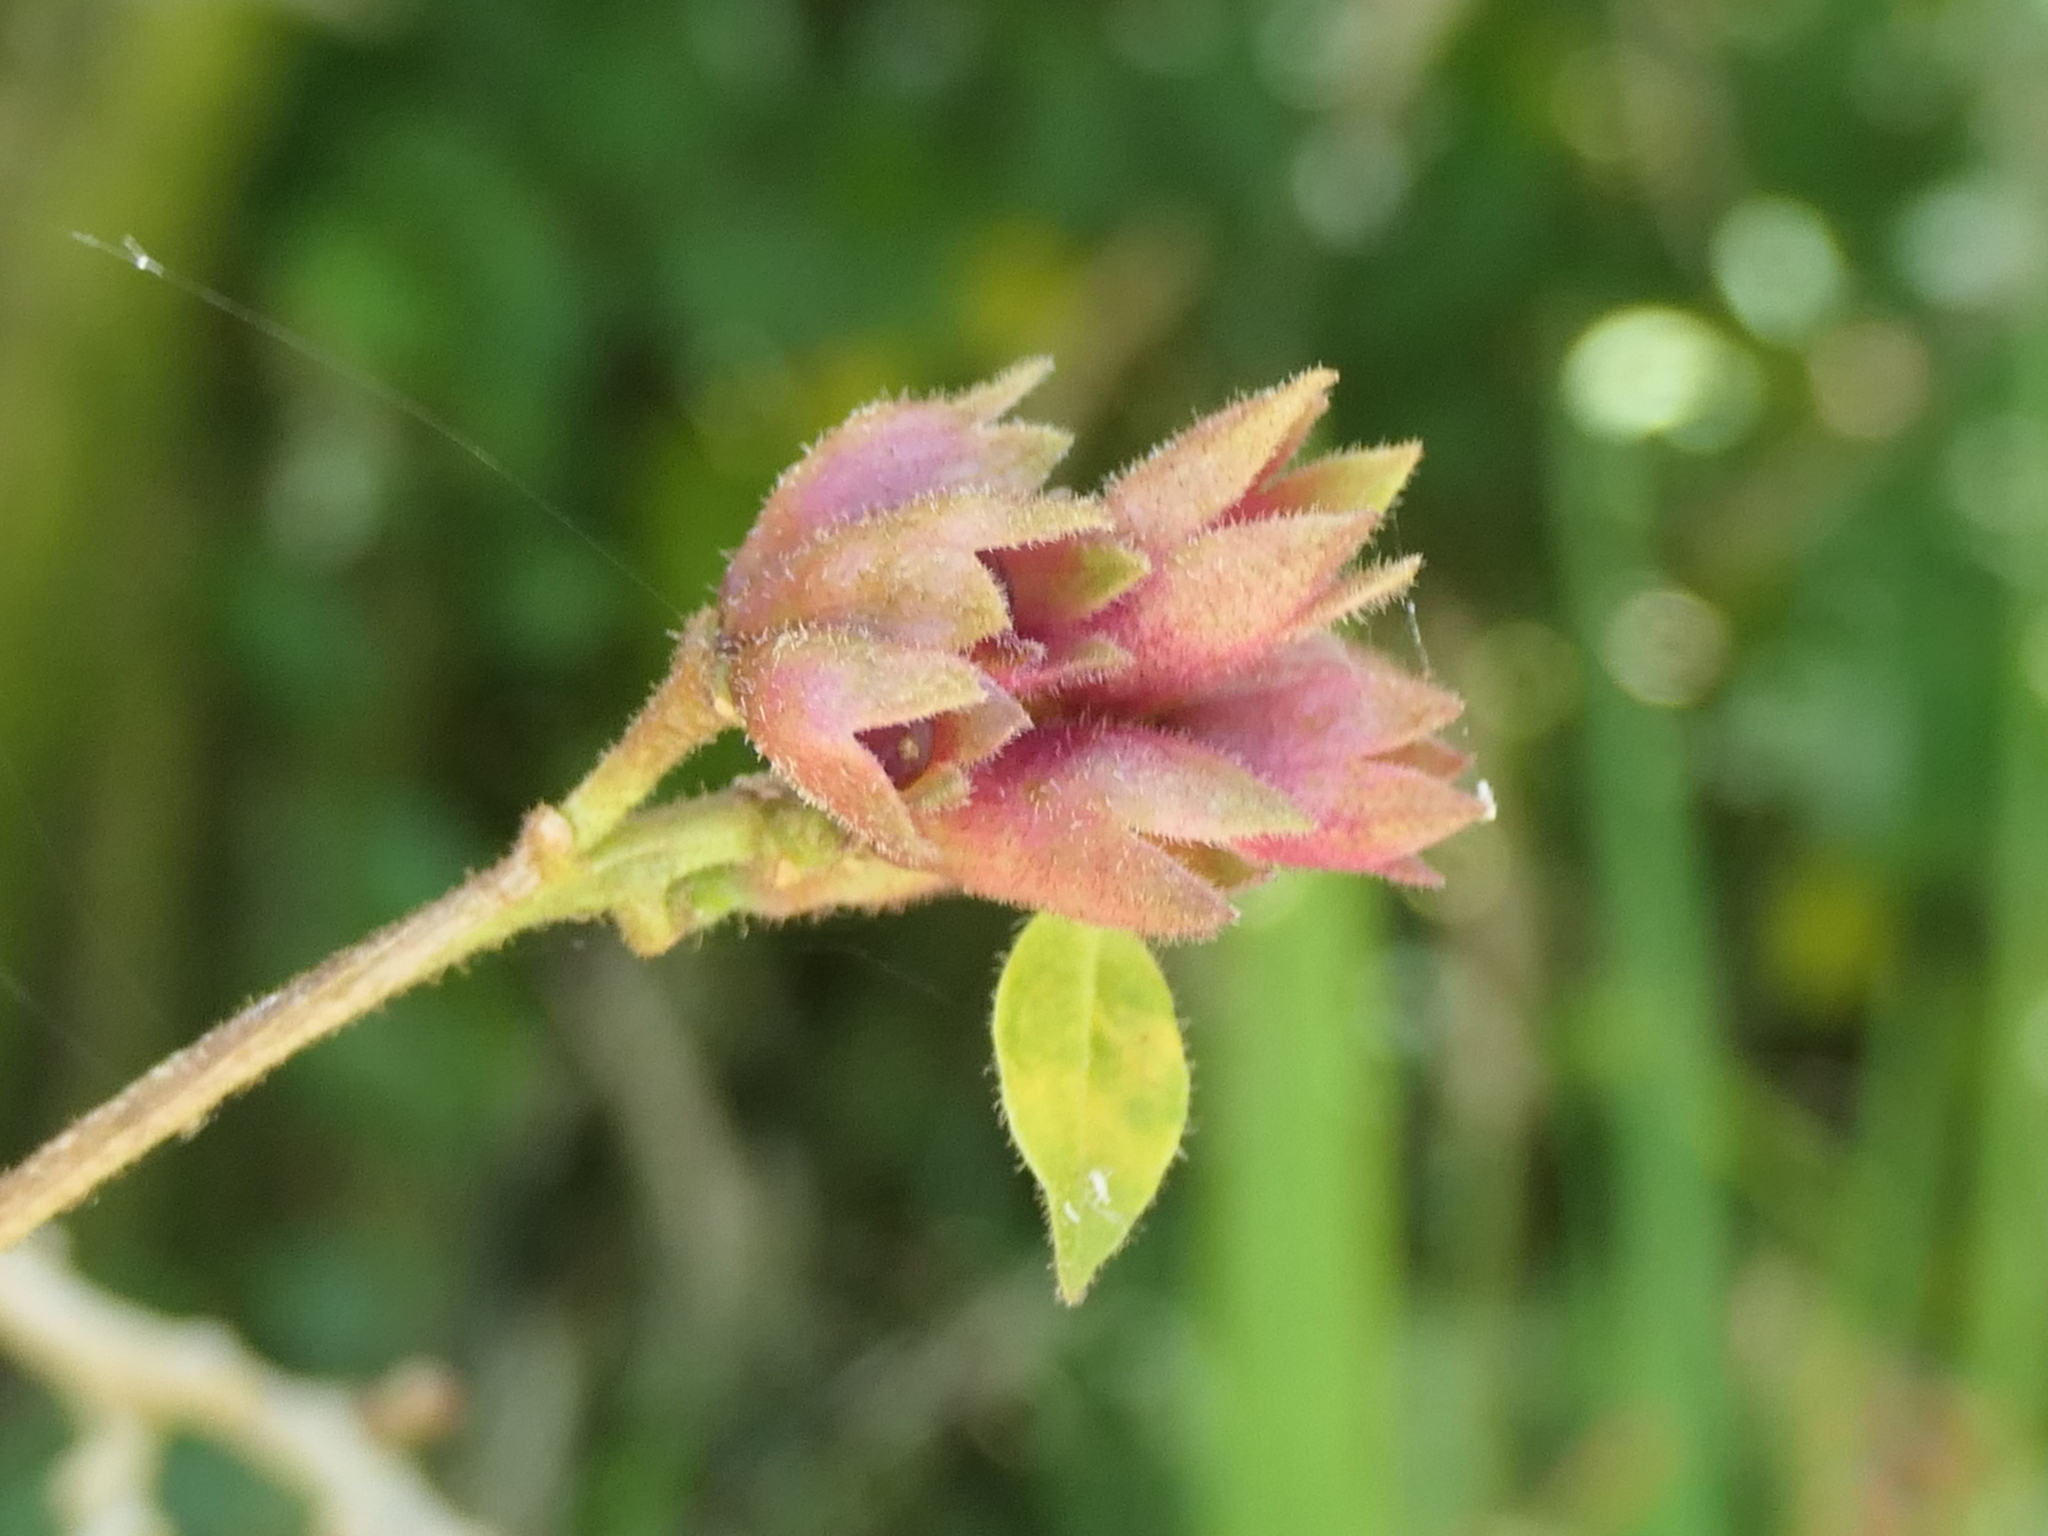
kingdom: Plantae
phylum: Tracheophyta
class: Magnoliopsida
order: Solanales
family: Solanaceae
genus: Cestrum
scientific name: Cestrum elegans
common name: Crimson cestrum
